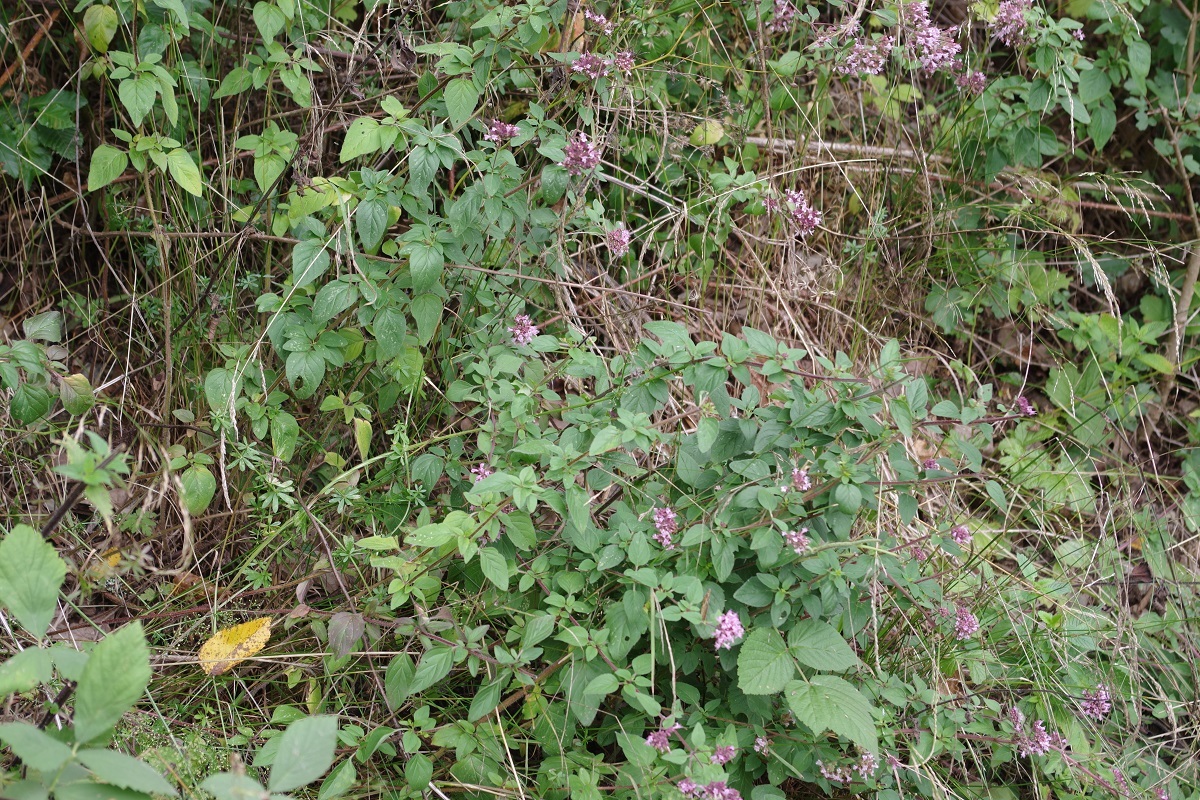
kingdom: Plantae
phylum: Tracheophyta
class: Magnoliopsida
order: Lamiales
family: Lamiaceae
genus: Origanum
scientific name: Origanum vulgare
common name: Wild marjoram
